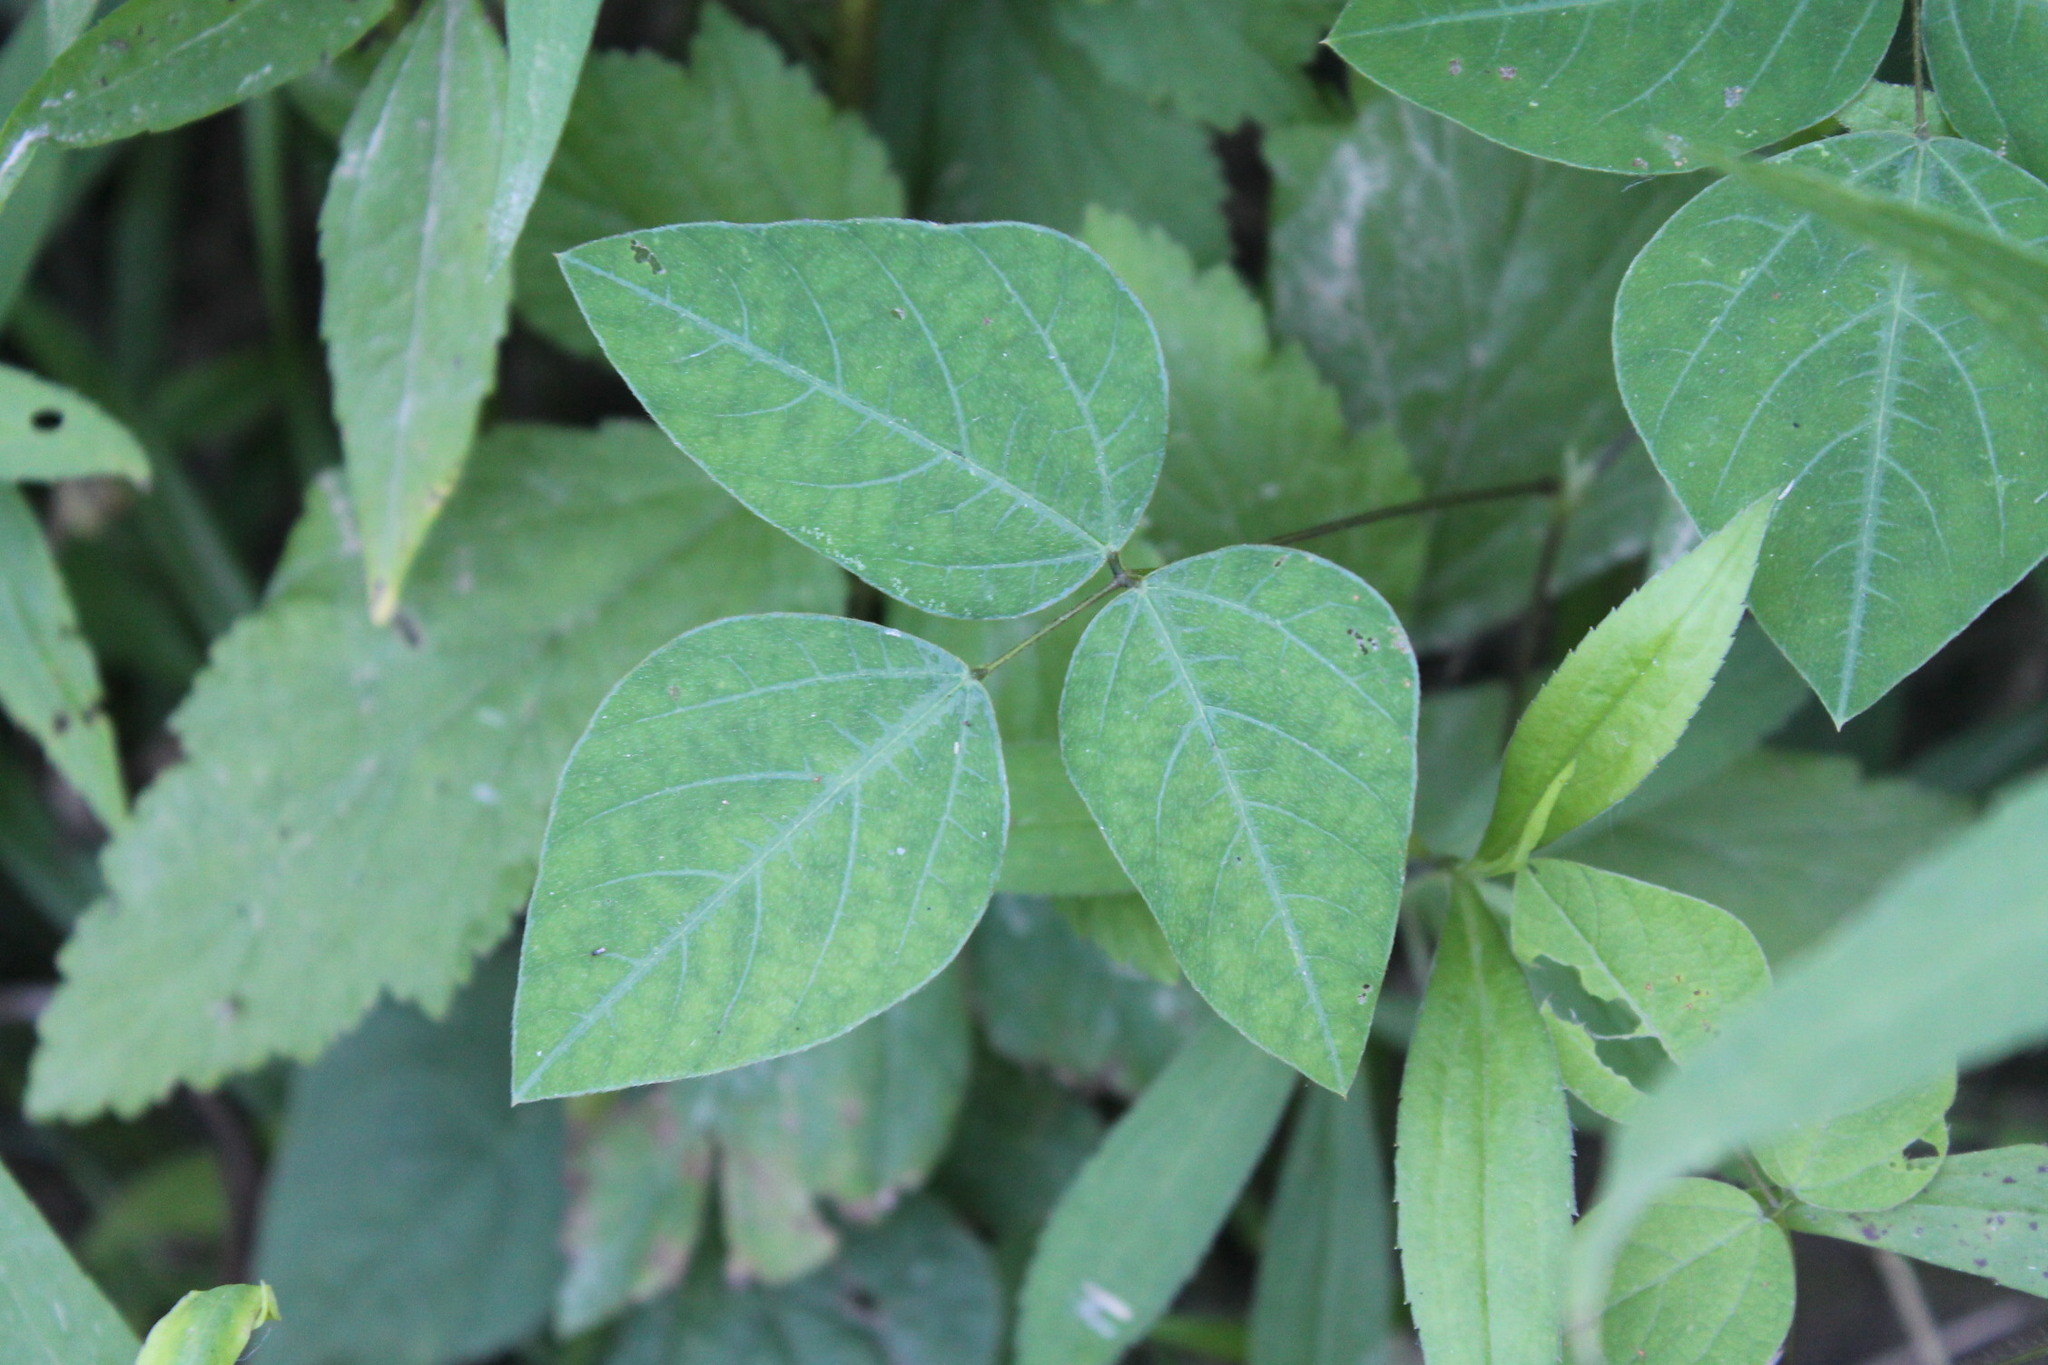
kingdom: Plantae
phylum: Tracheophyta
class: Magnoliopsida
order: Fabales
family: Fabaceae
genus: Amphicarpaea
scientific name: Amphicarpaea bracteata
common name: American hog peanut
